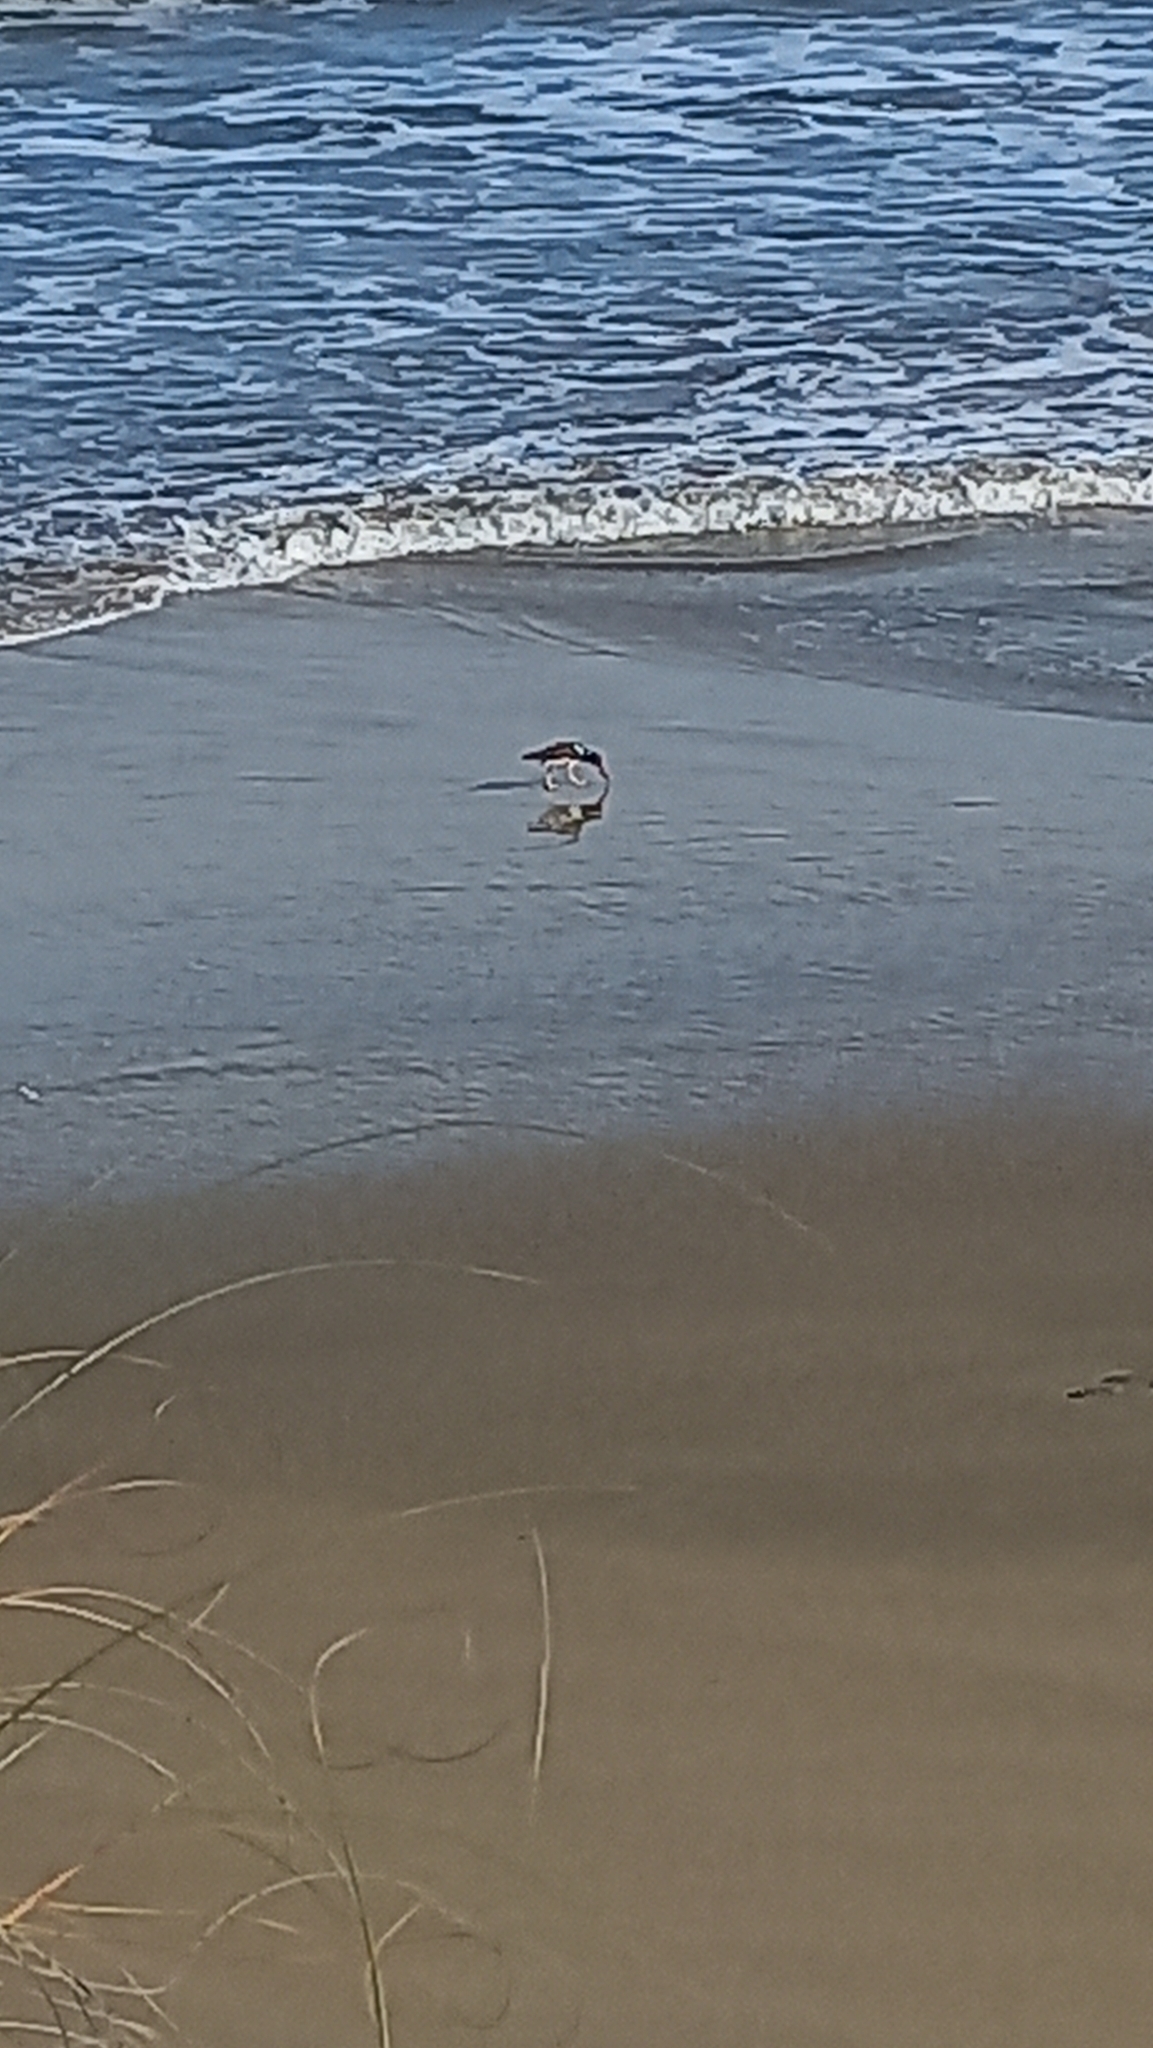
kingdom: Animalia
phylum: Chordata
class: Aves
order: Charadriiformes
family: Haematopodidae
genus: Haematopus
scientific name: Haematopus palliatus
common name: American oystercatcher
